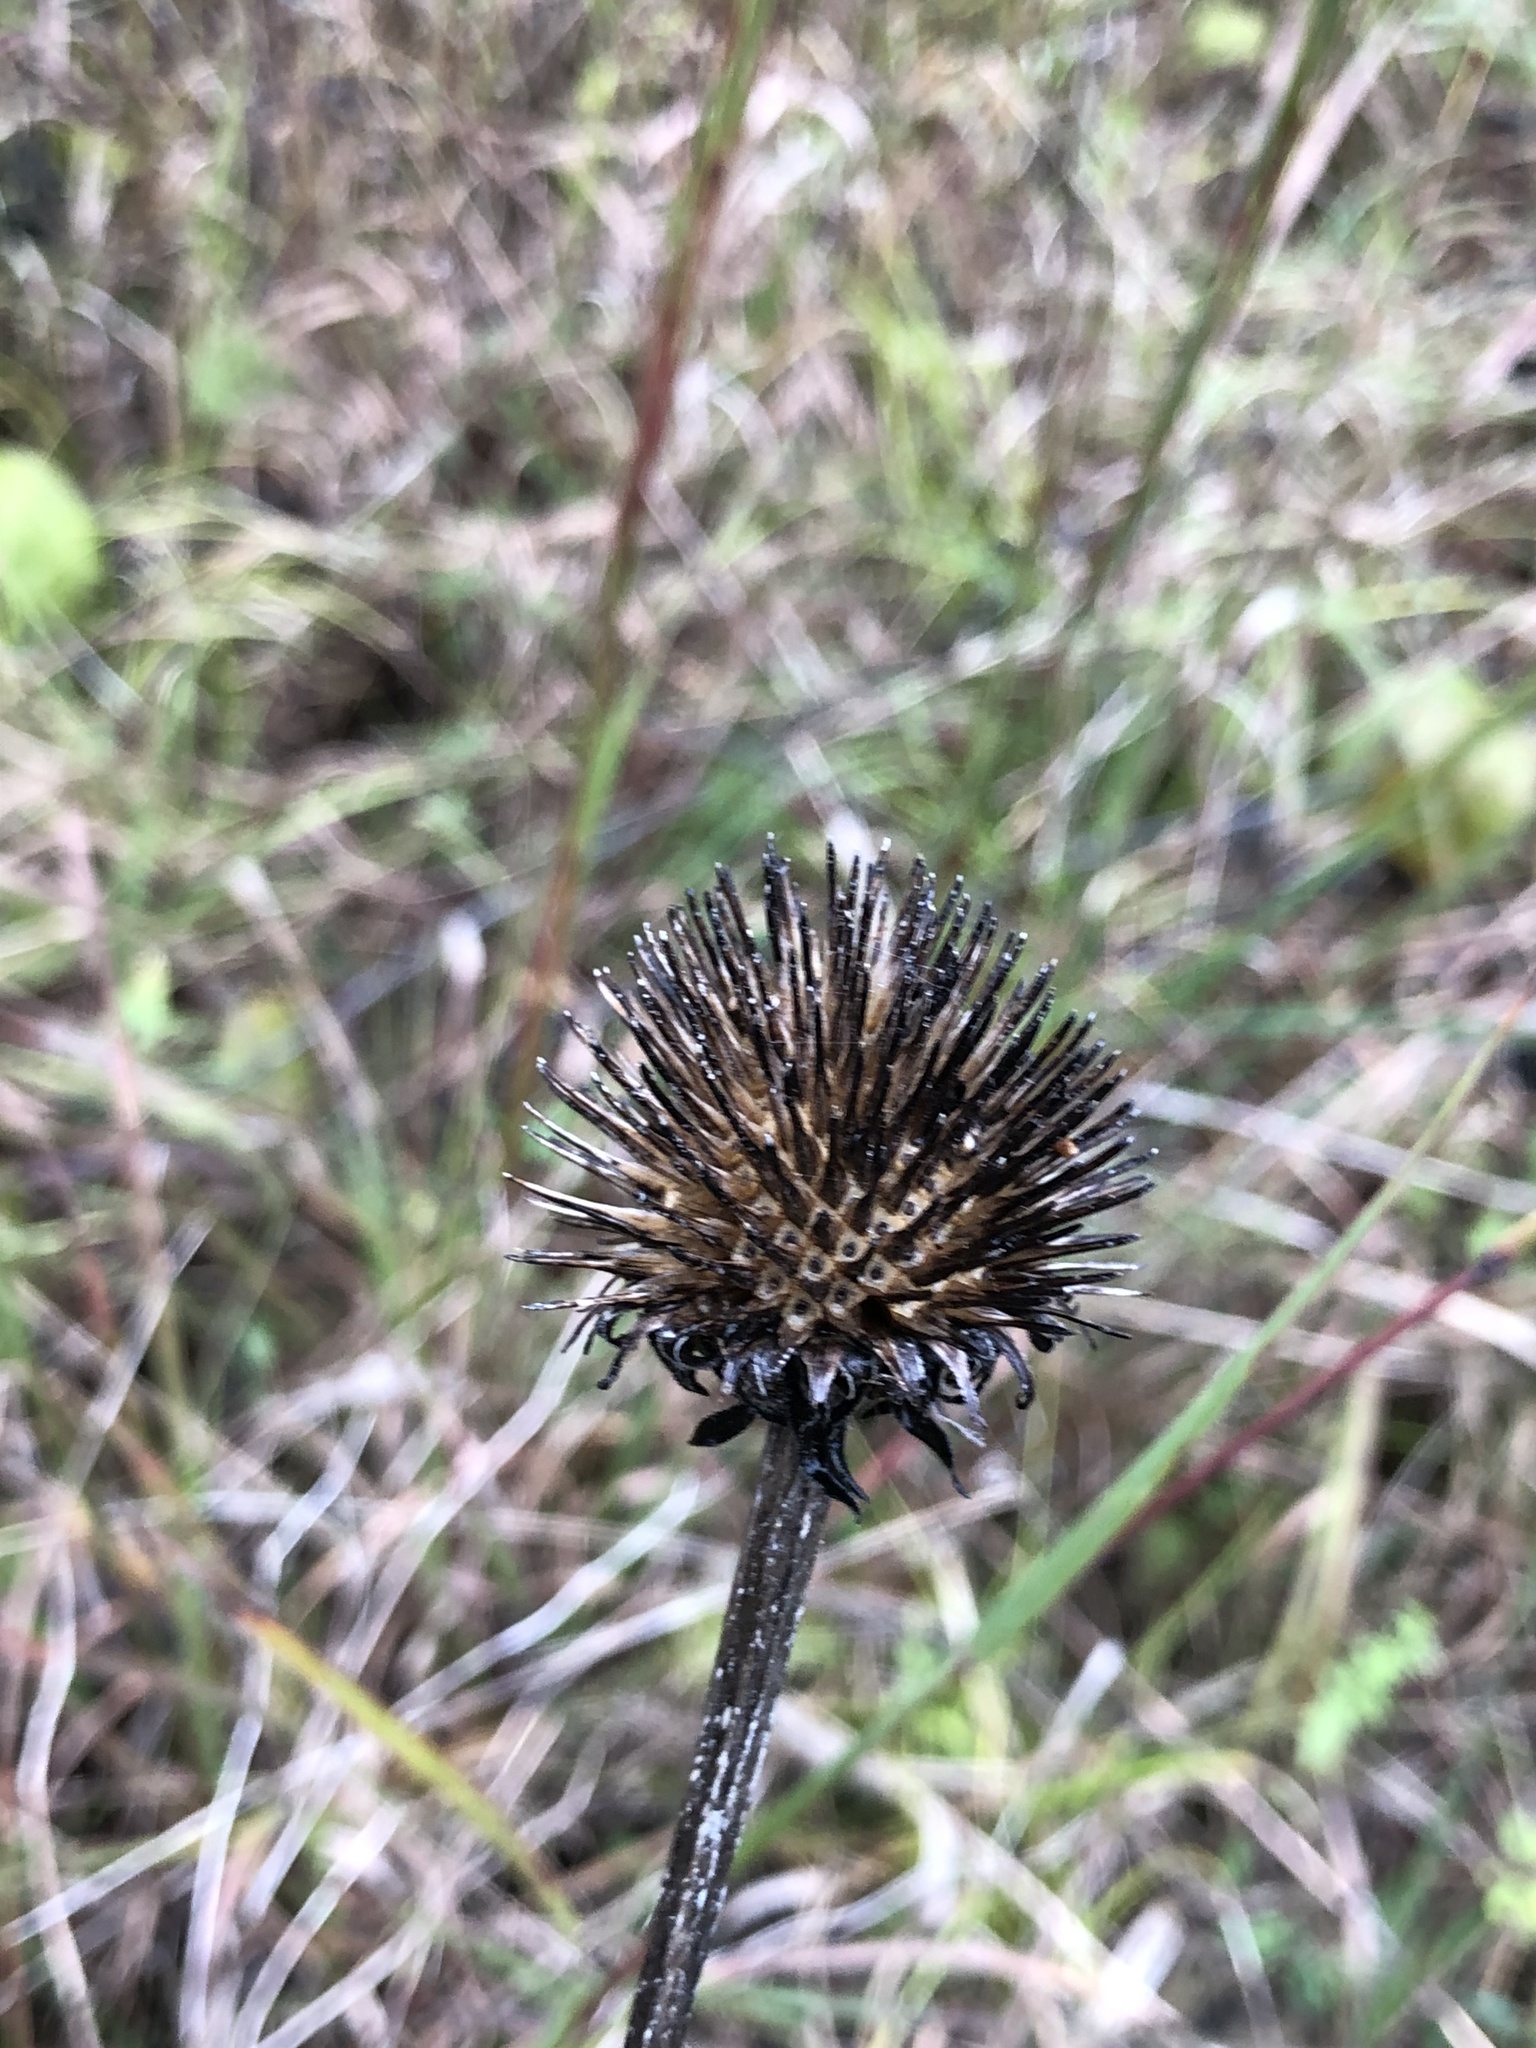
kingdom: Plantae
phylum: Tracheophyta
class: Magnoliopsida
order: Asterales
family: Asteraceae
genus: Echinacea
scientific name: Echinacea purpurea
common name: Broad-leaved purple coneflower
